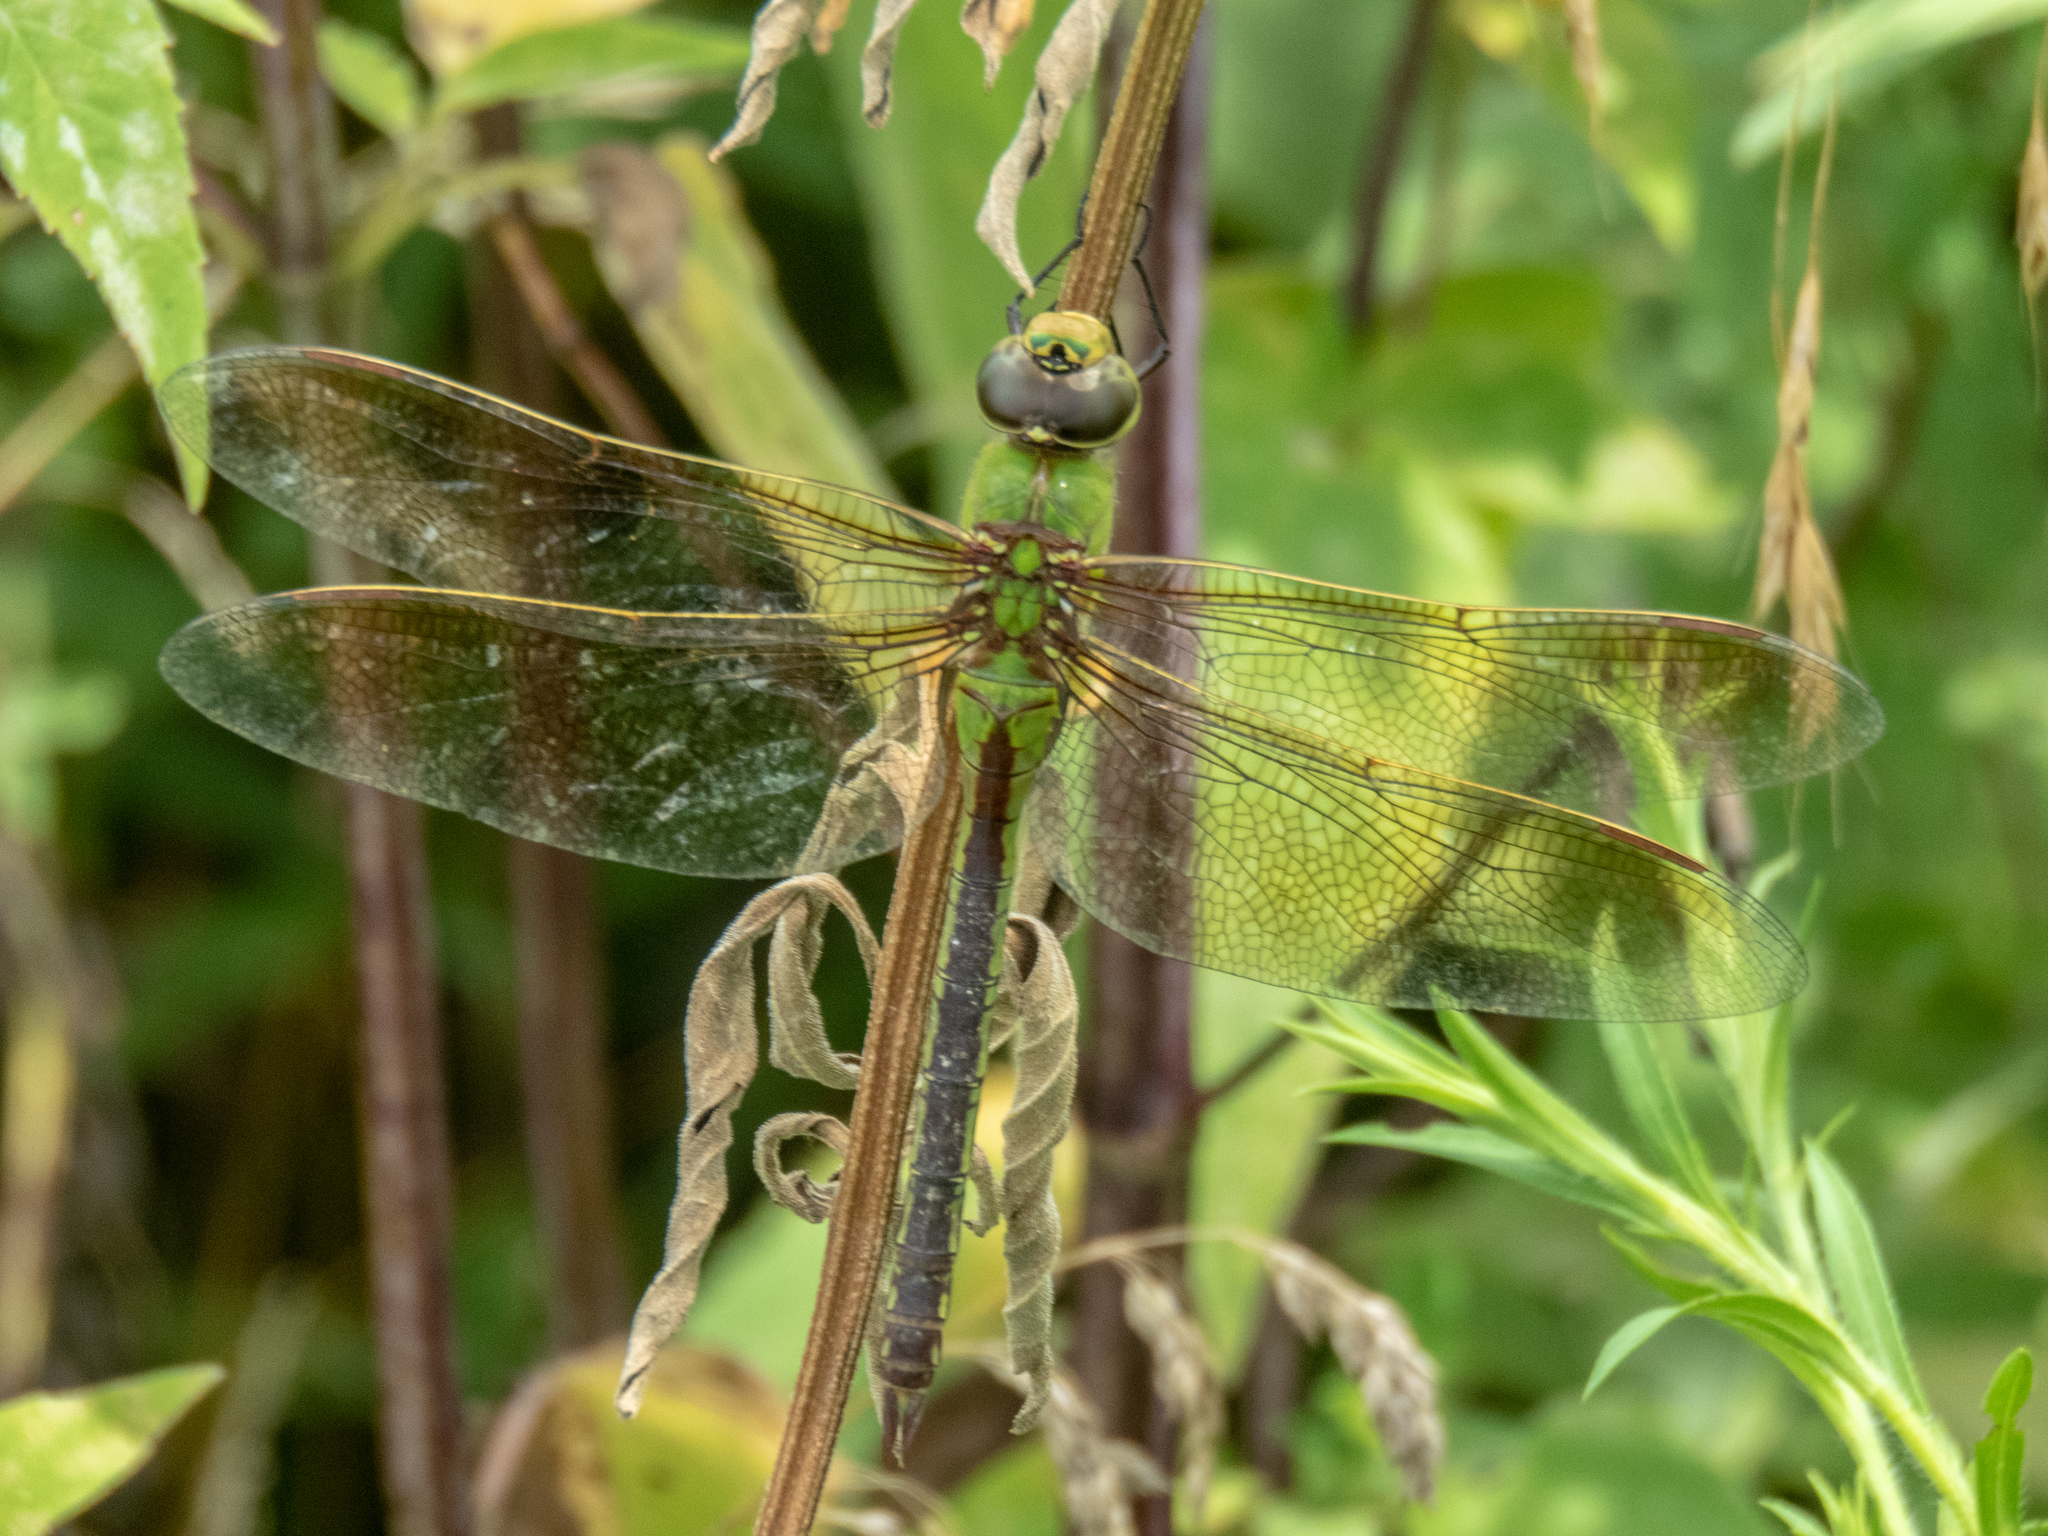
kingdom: Animalia
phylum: Arthropoda
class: Insecta
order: Odonata
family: Aeshnidae
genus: Anax
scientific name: Anax junius
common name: Common green darner
